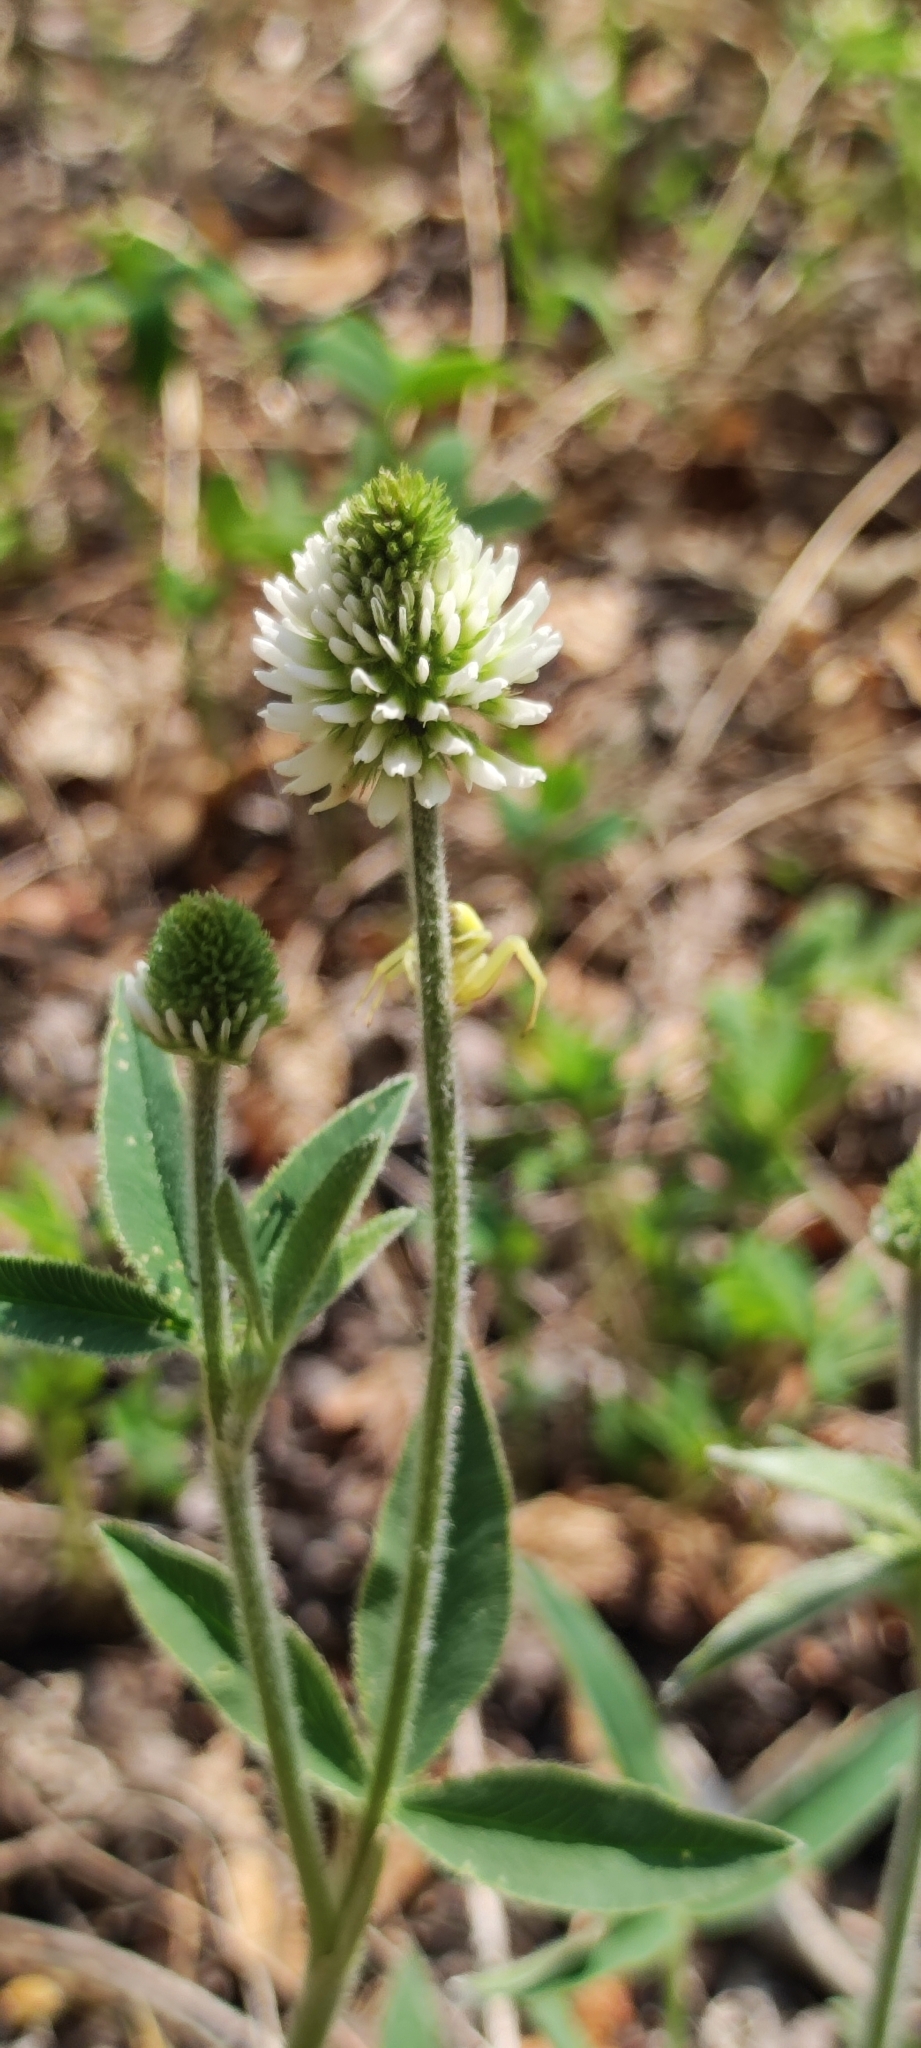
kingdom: Plantae
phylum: Tracheophyta
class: Magnoliopsida
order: Fabales
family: Fabaceae
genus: Trifolium
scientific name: Trifolium montanum
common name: Mountain clover
